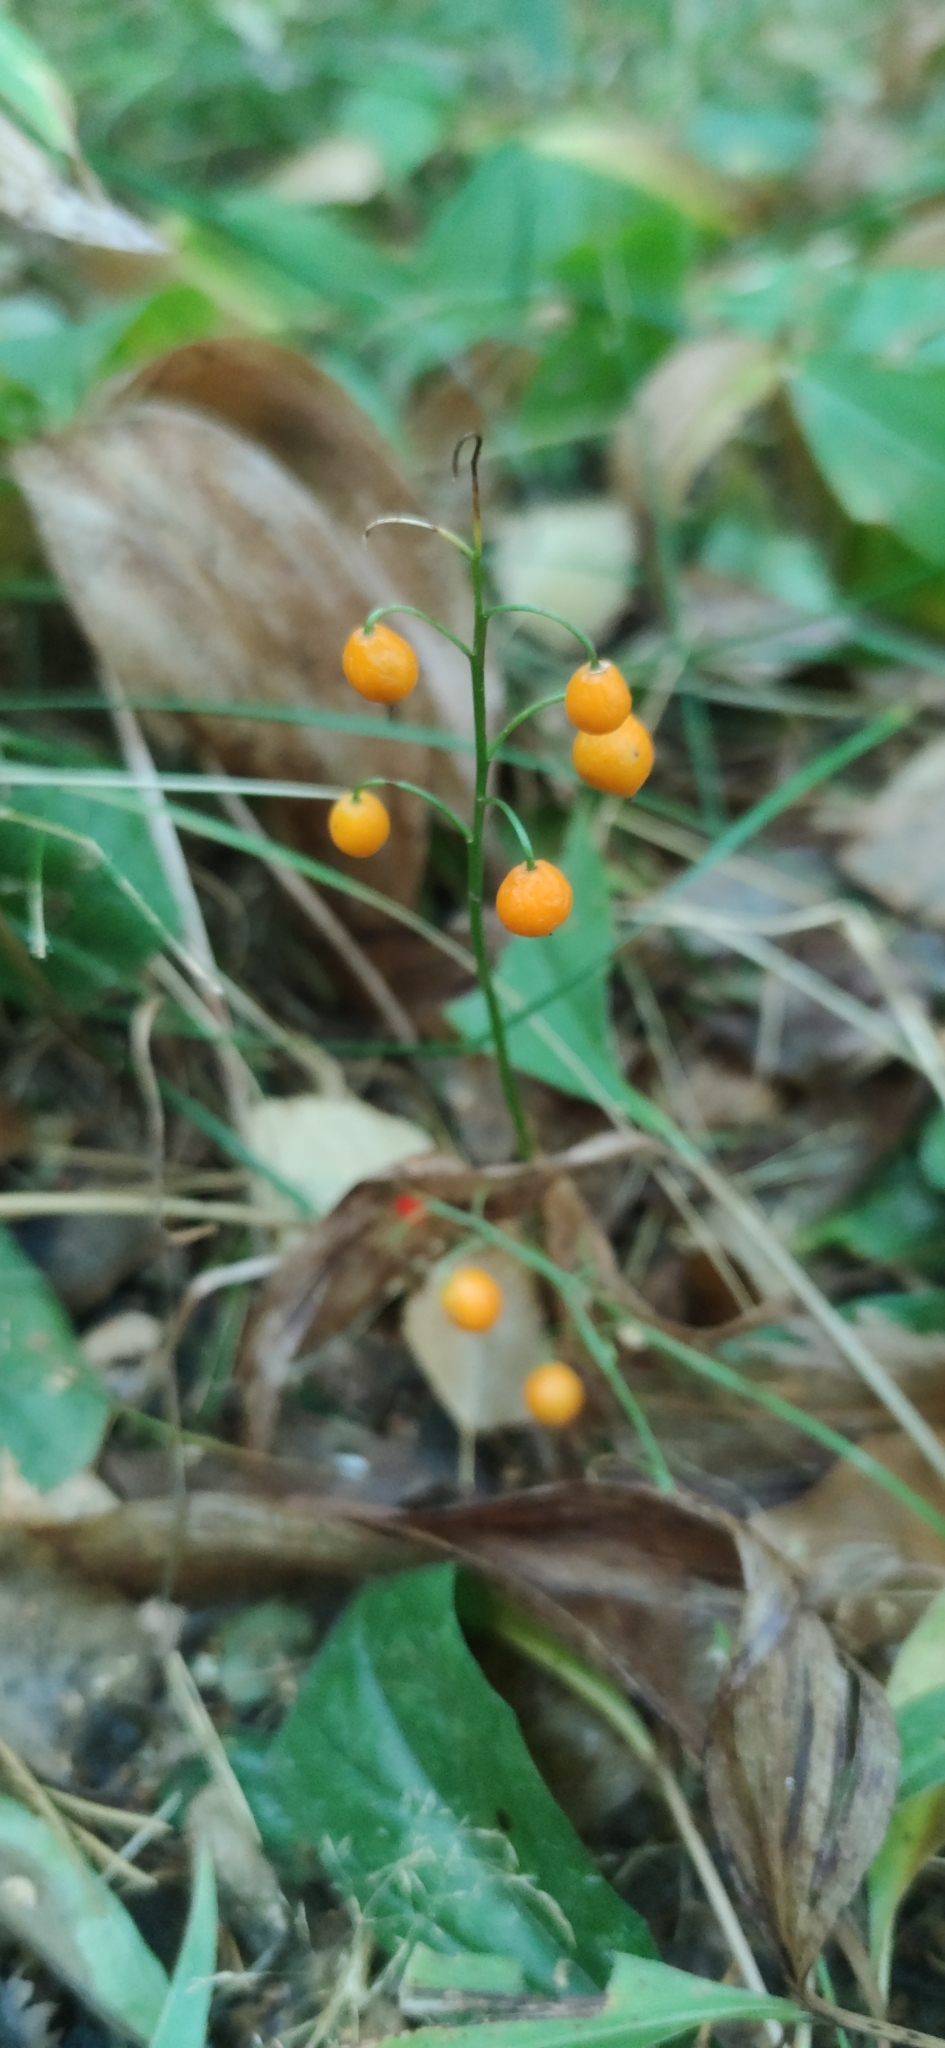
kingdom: Plantae
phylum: Tracheophyta
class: Liliopsida
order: Asparagales
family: Asparagaceae
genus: Convallaria
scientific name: Convallaria majalis
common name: Lily-of-the-valley
